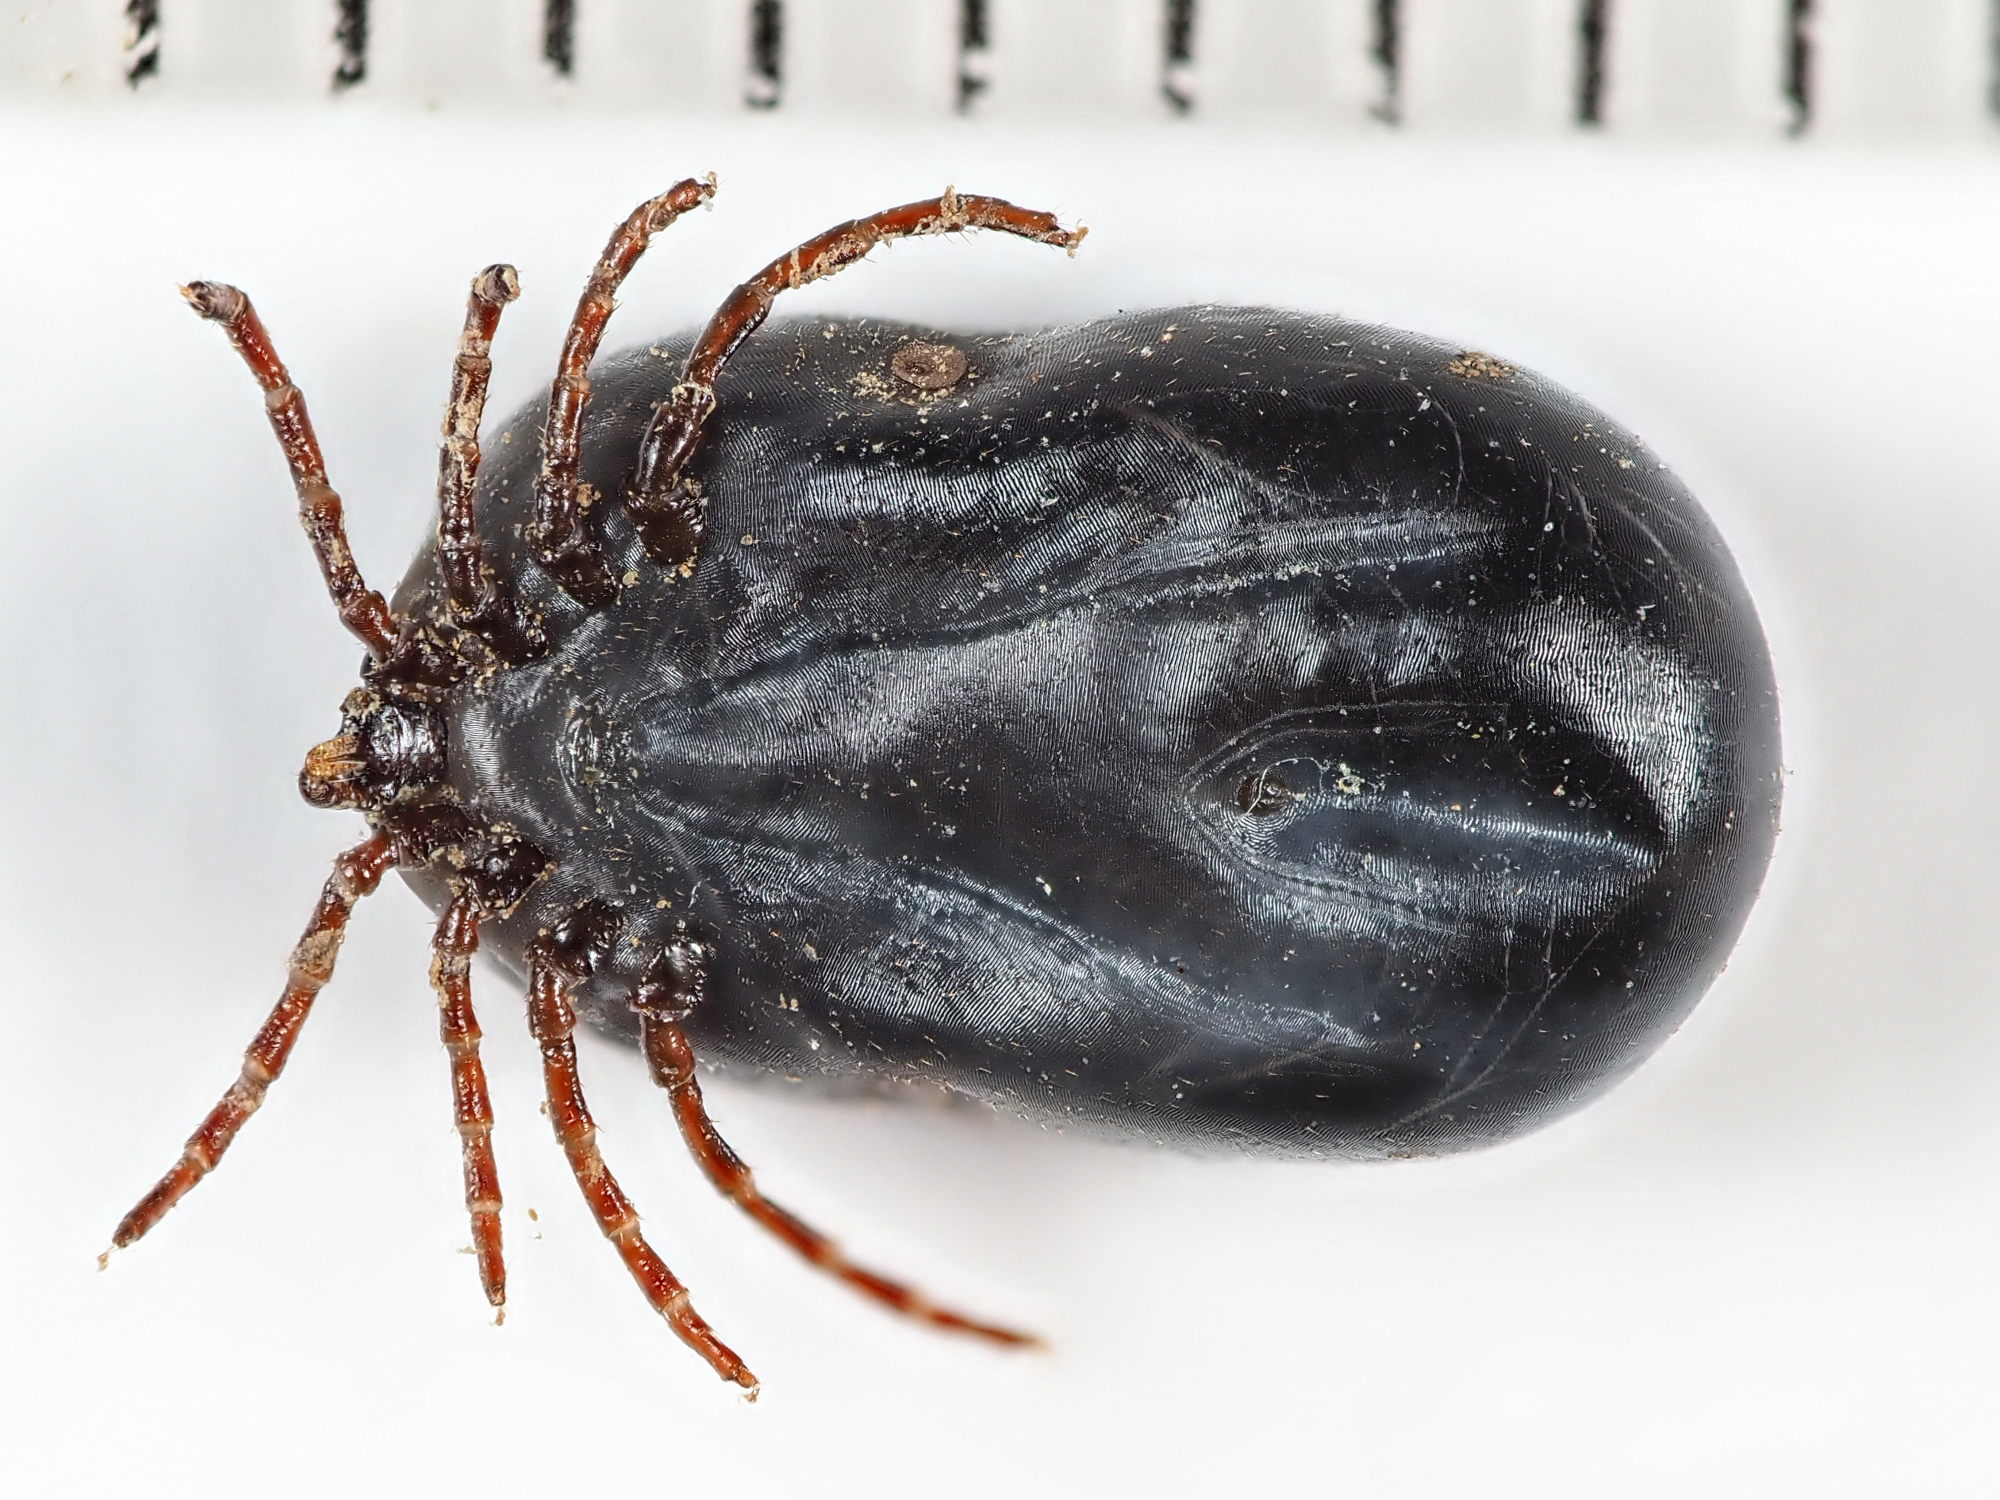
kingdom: Animalia
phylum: Arthropoda
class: Arachnida
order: Ixodida
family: Ixodidae
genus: Ixodes
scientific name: Ixodes hexagonus
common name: Hedgehog tick
